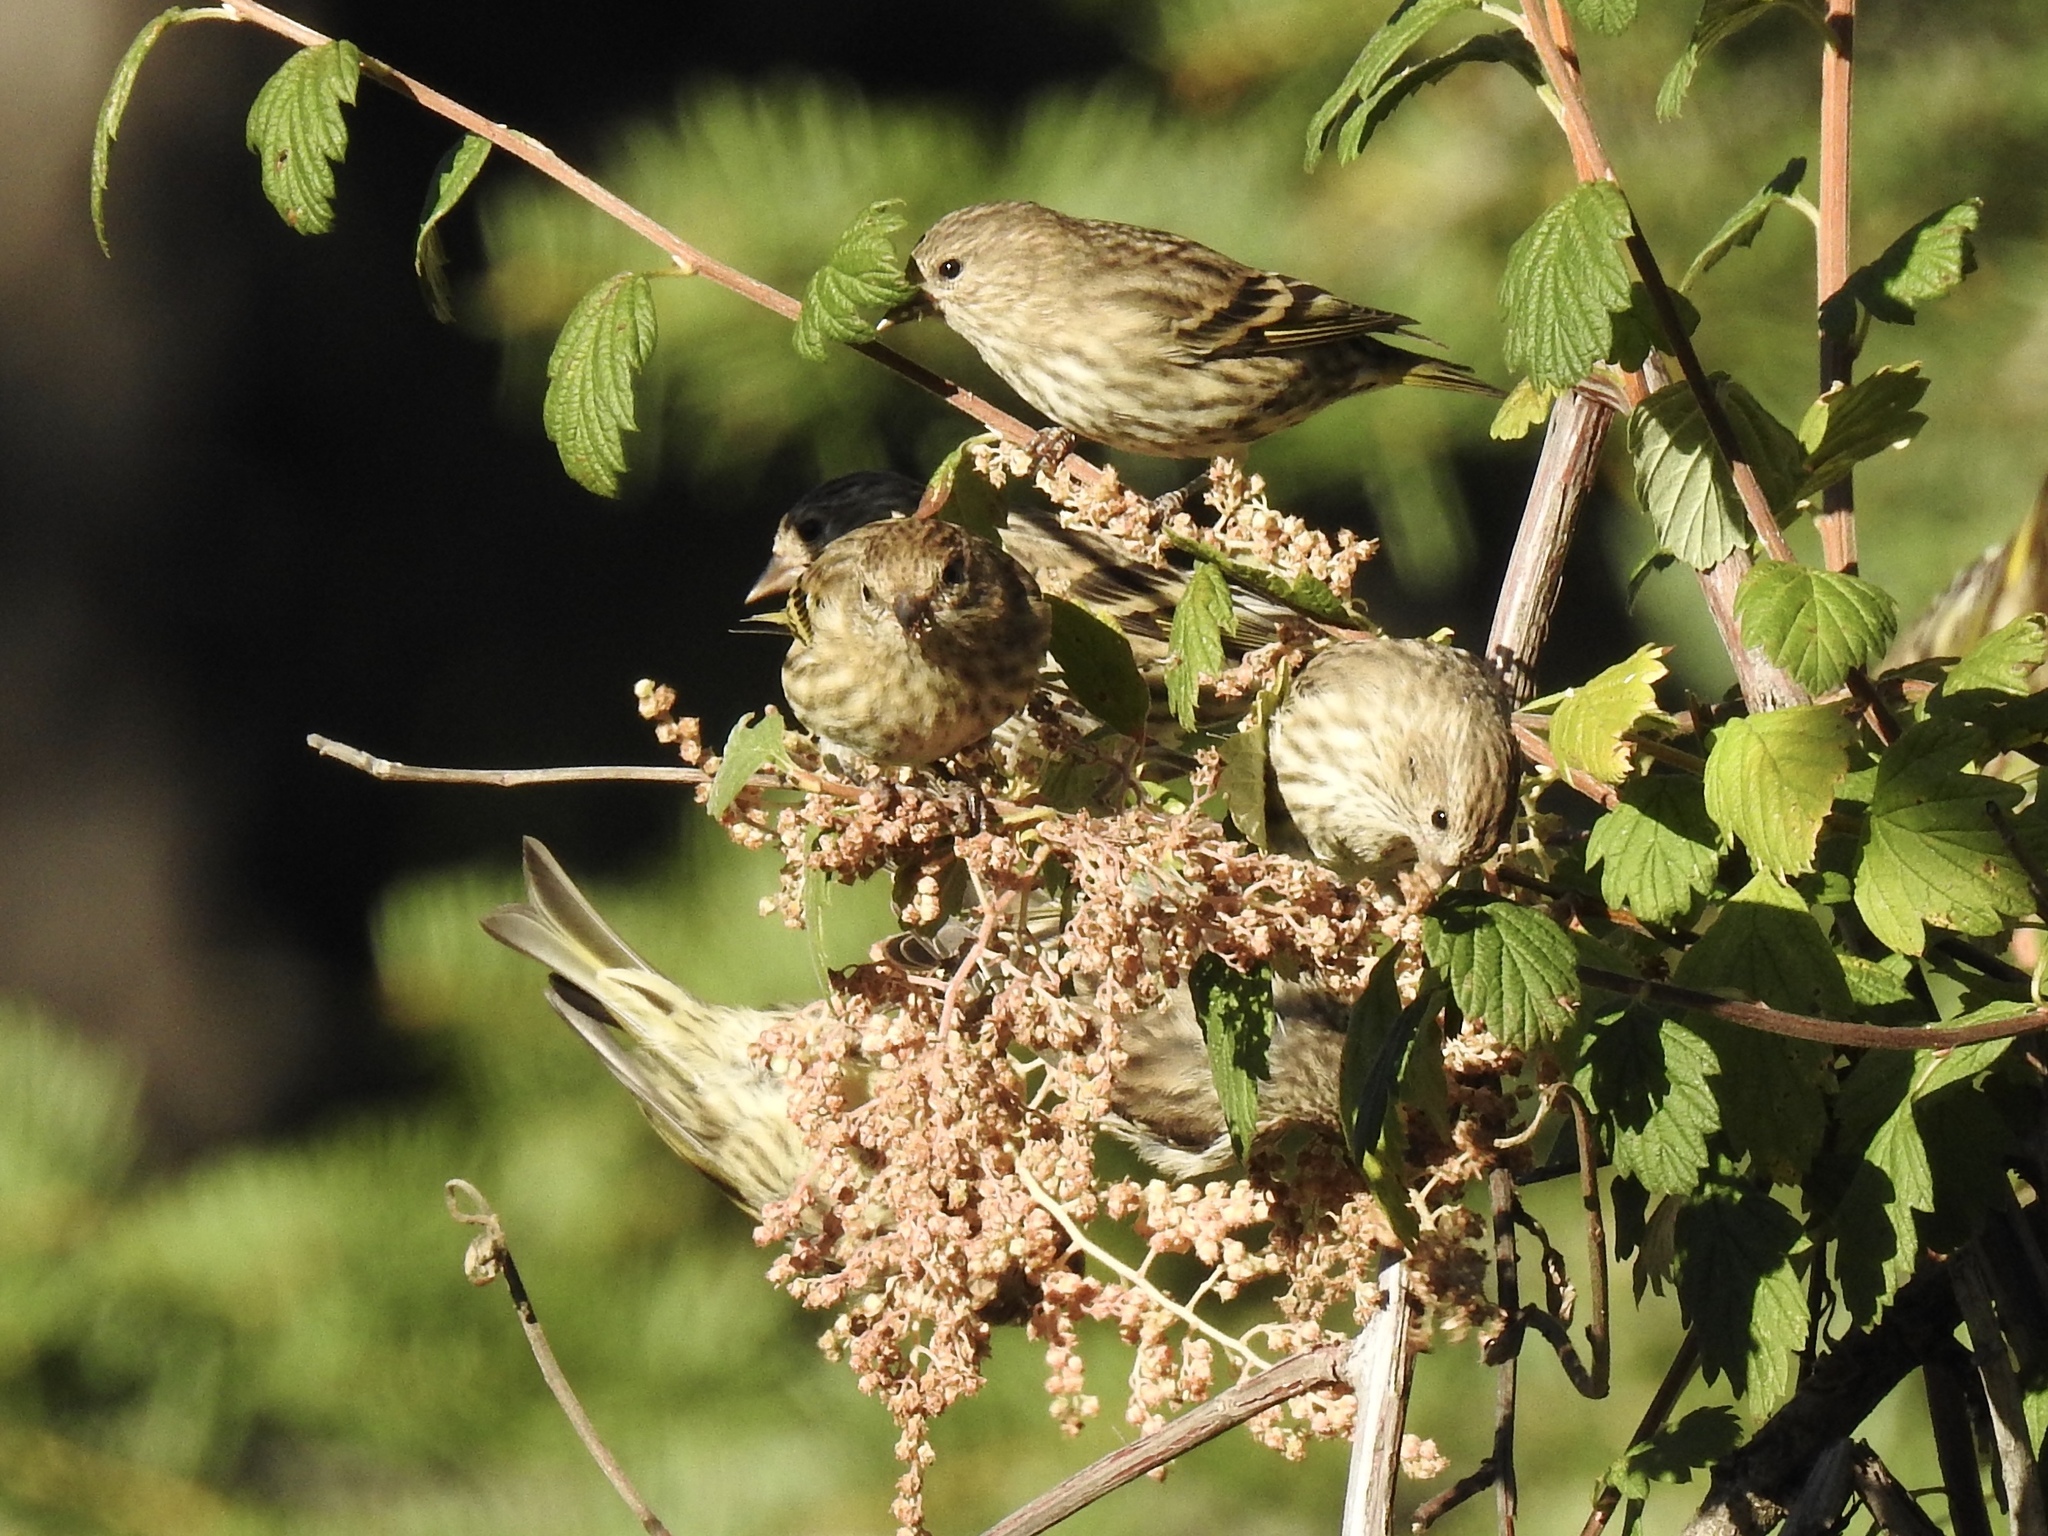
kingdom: Animalia
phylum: Chordata
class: Aves
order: Passeriformes
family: Fringillidae
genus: Spinus
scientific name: Spinus pinus
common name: Pine siskin
